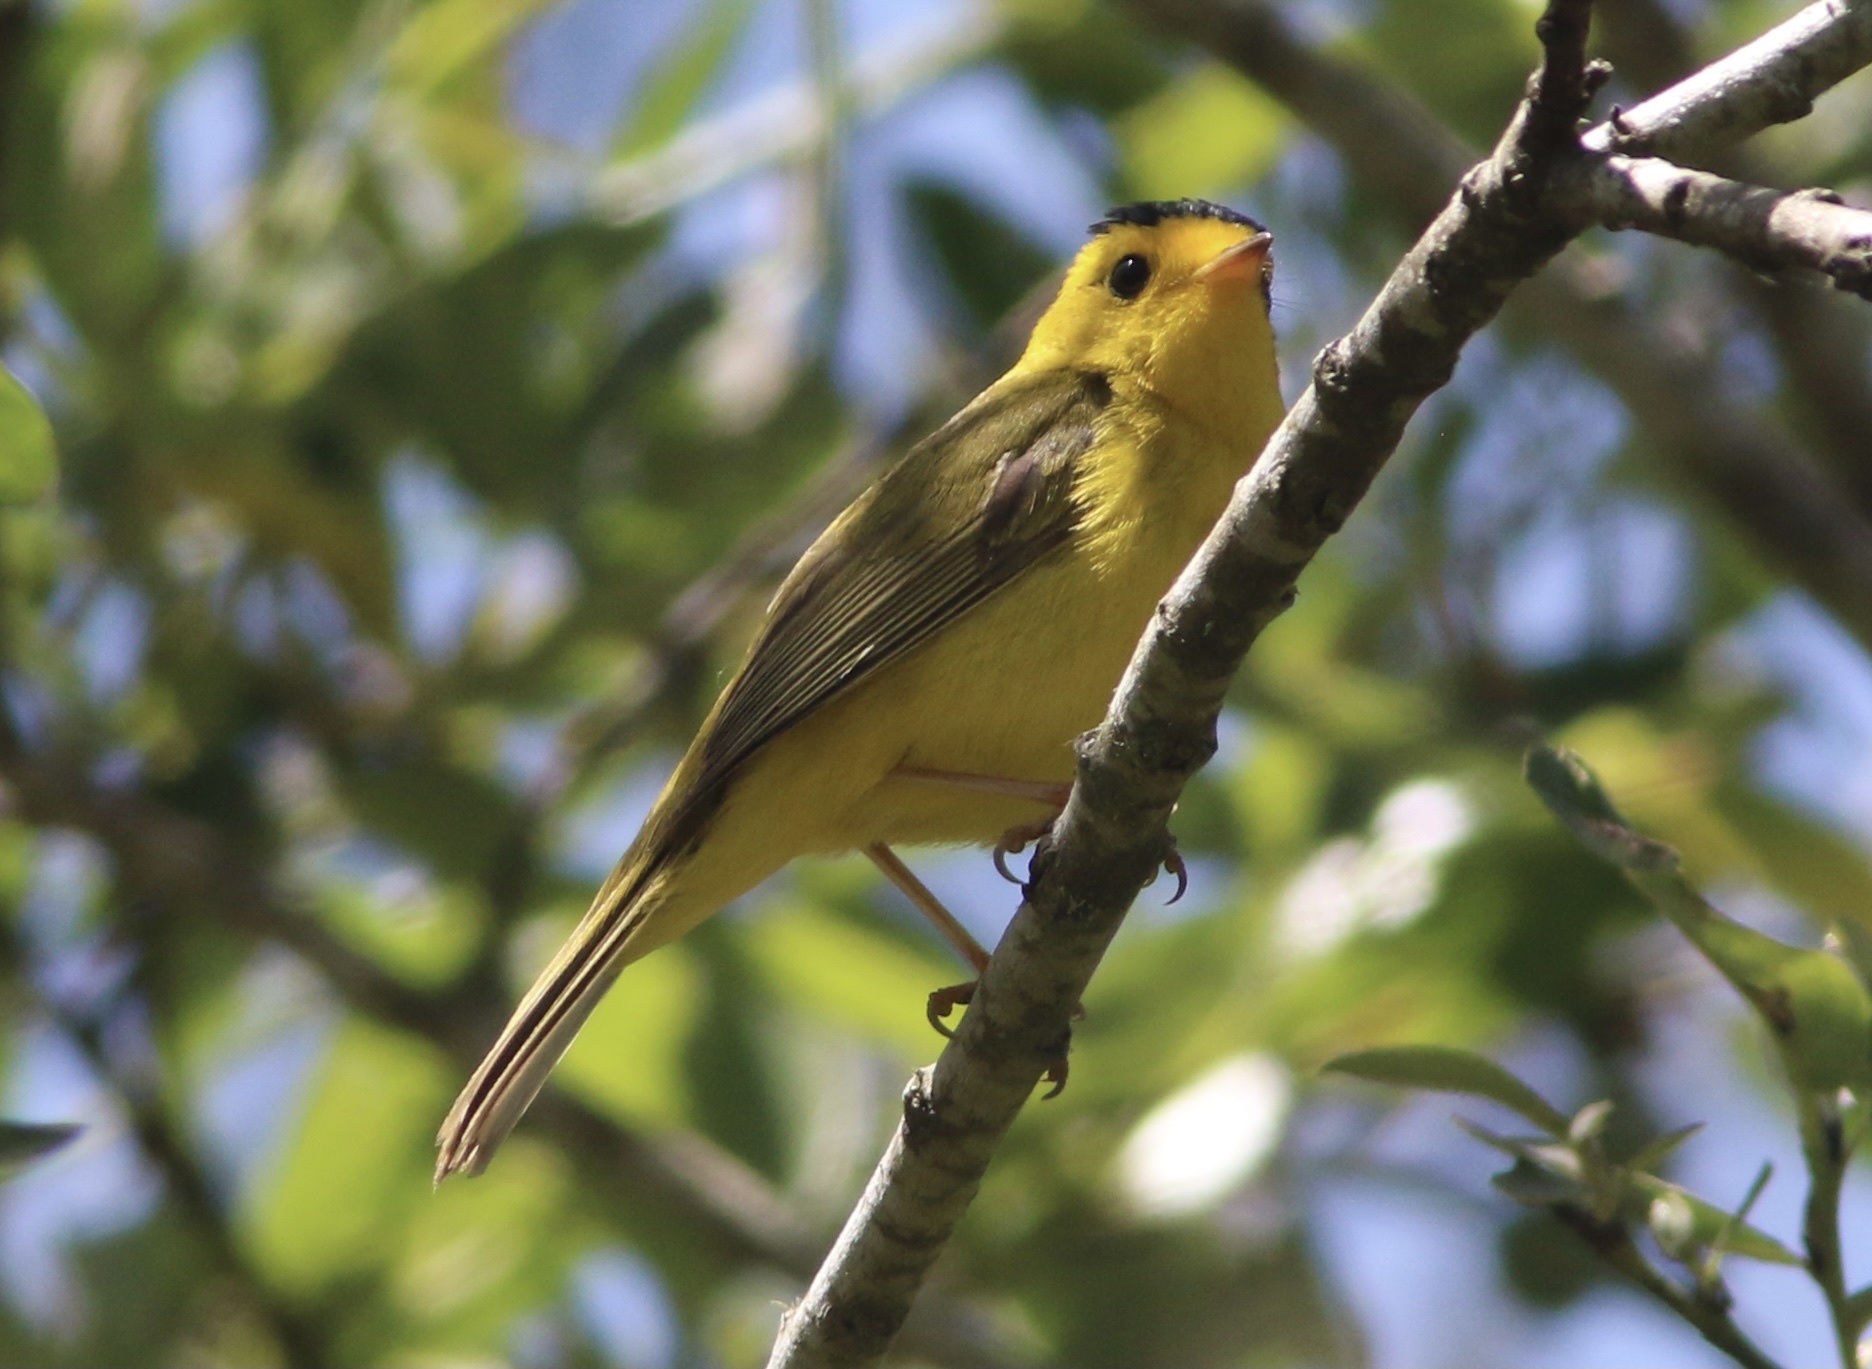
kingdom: Animalia
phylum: Chordata
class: Aves
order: Passeriformes
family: Parulidae
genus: Cardellina
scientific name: Cardellina pusilla
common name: Wilson's warbler
